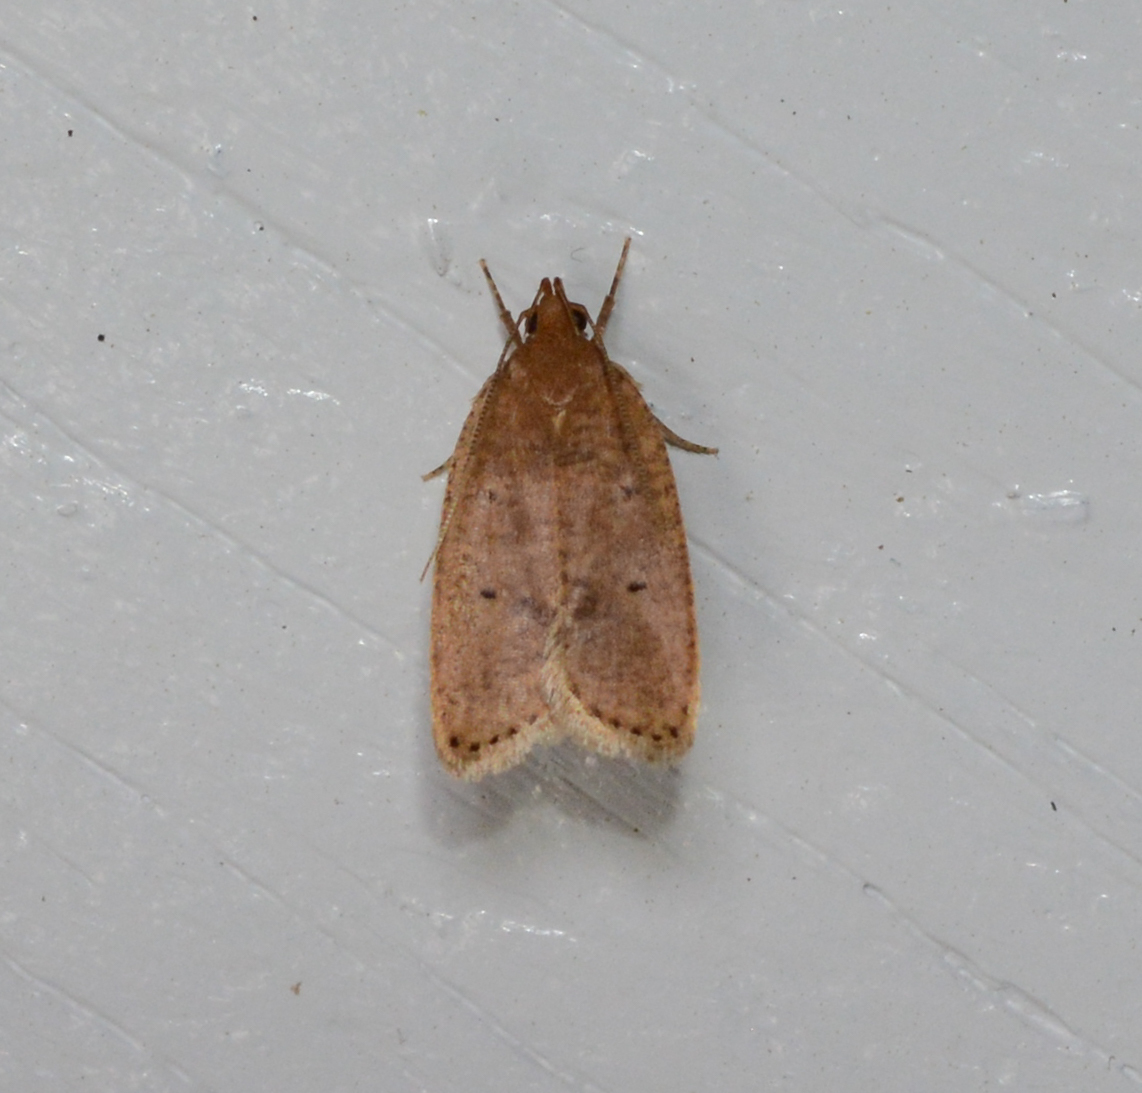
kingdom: Animalia
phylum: Arthropoda
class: Insecta
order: Lepidoptera
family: Depressariidae
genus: Psilocorsis
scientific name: Psilocorsis reflexella
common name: Dotted leaftier moth
